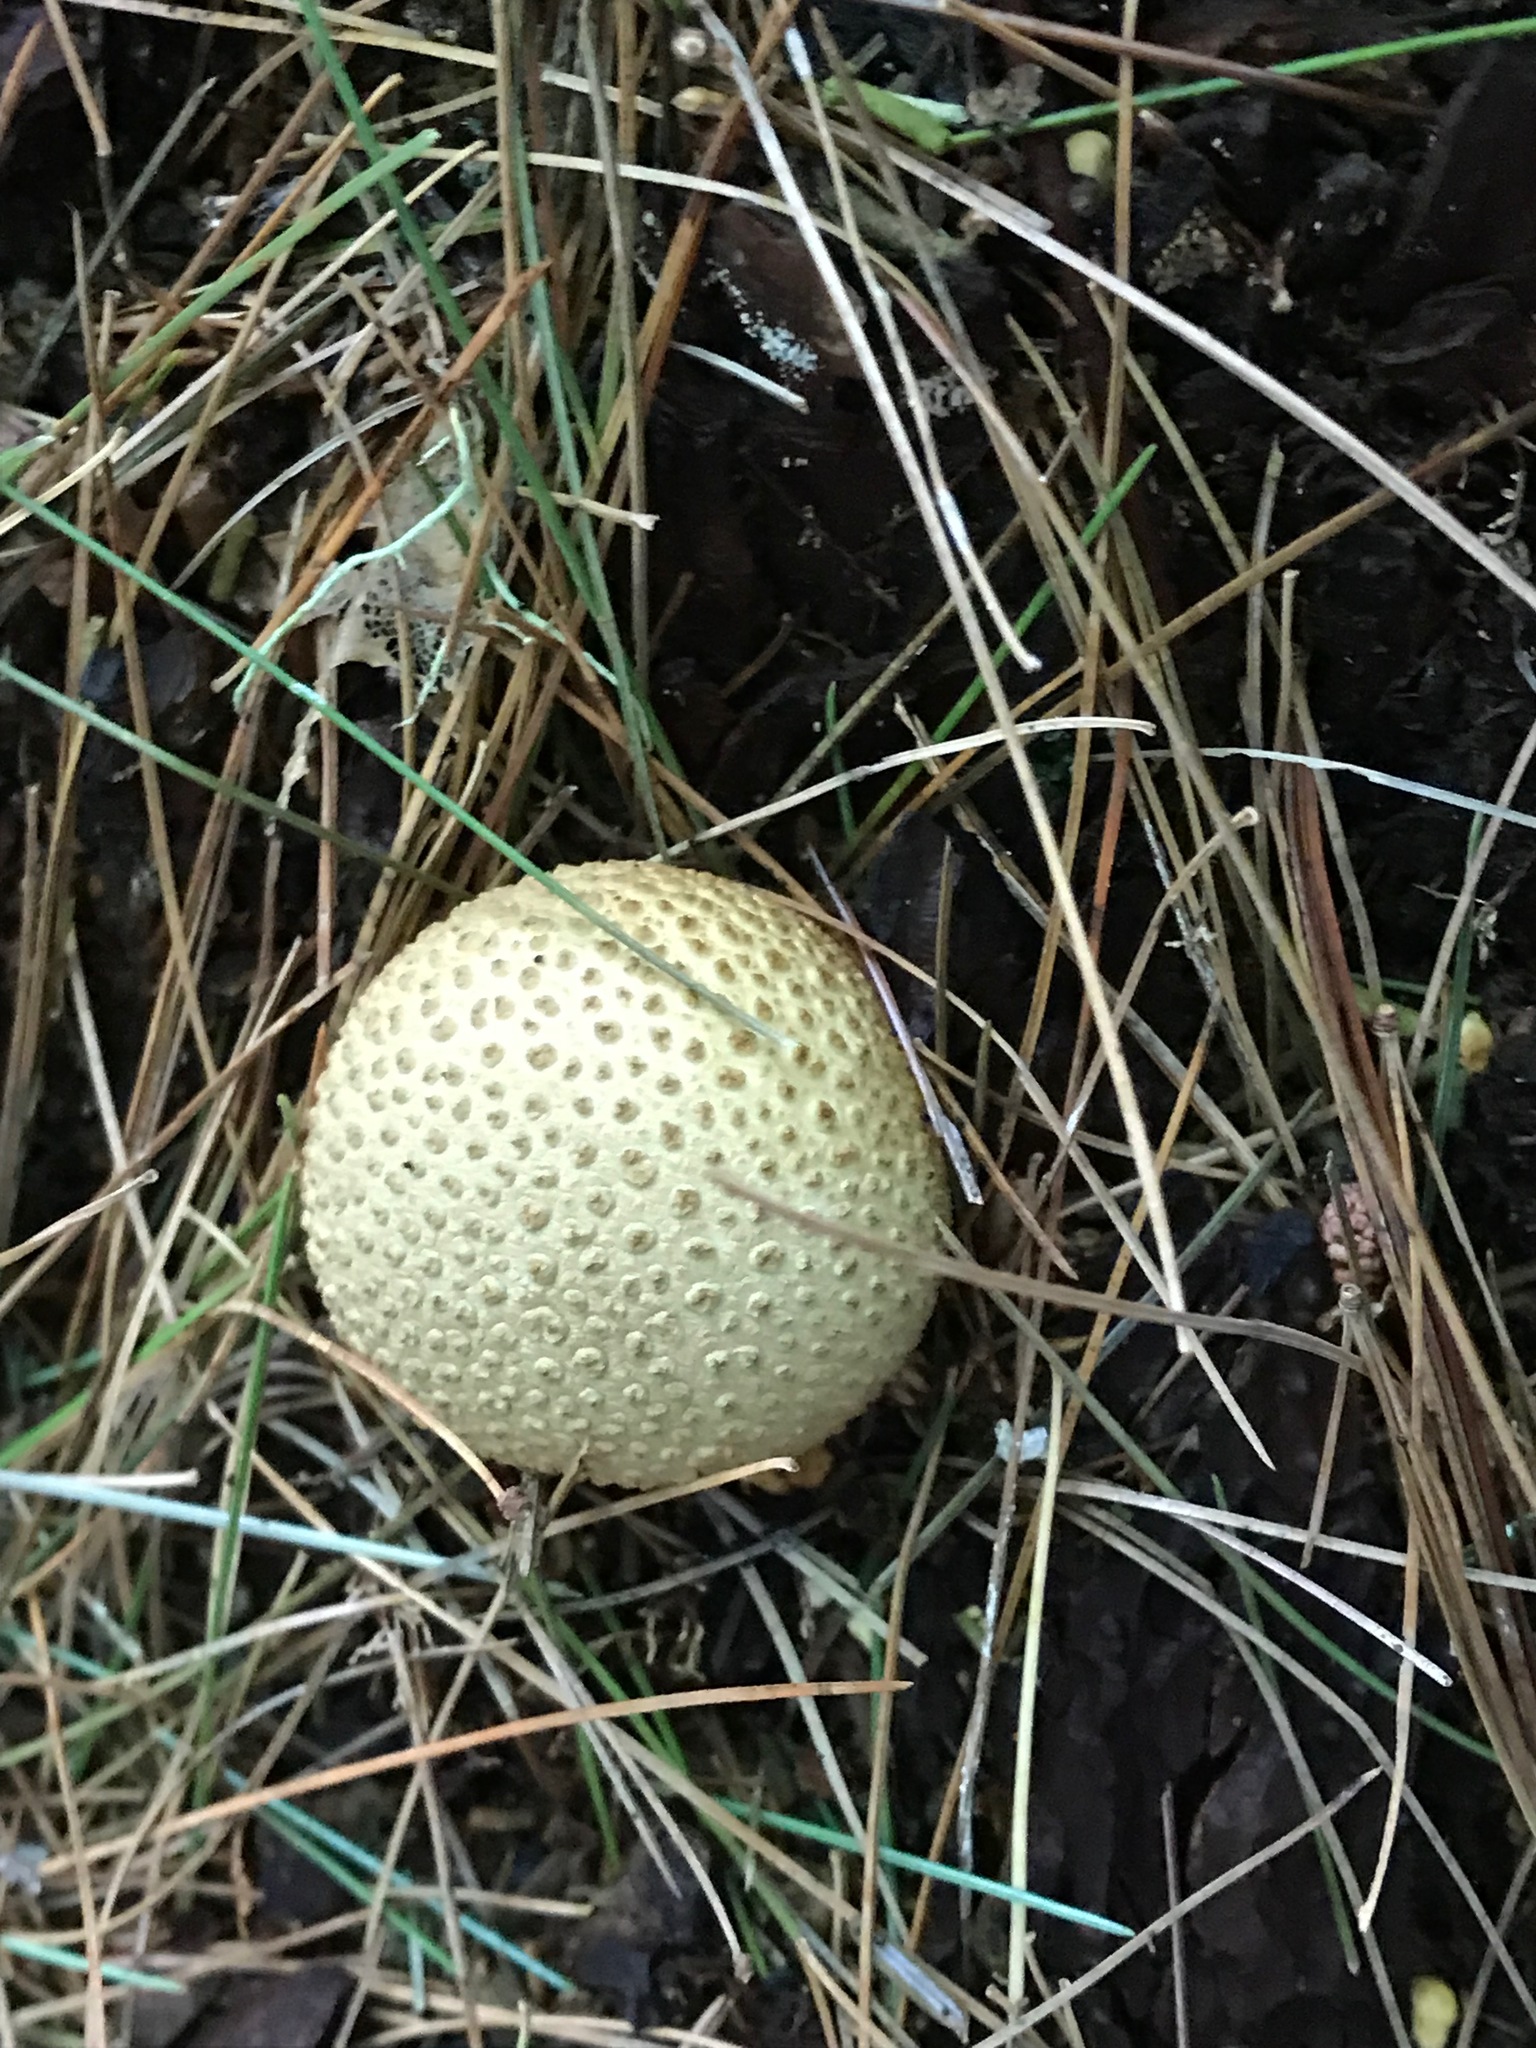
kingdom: Fungi
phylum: Basidiomycota
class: Agaricomycetes
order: Boletales
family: Sclerodermataceae
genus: Scleroderma
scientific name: Scleroderma citrinum
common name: Common earthball
